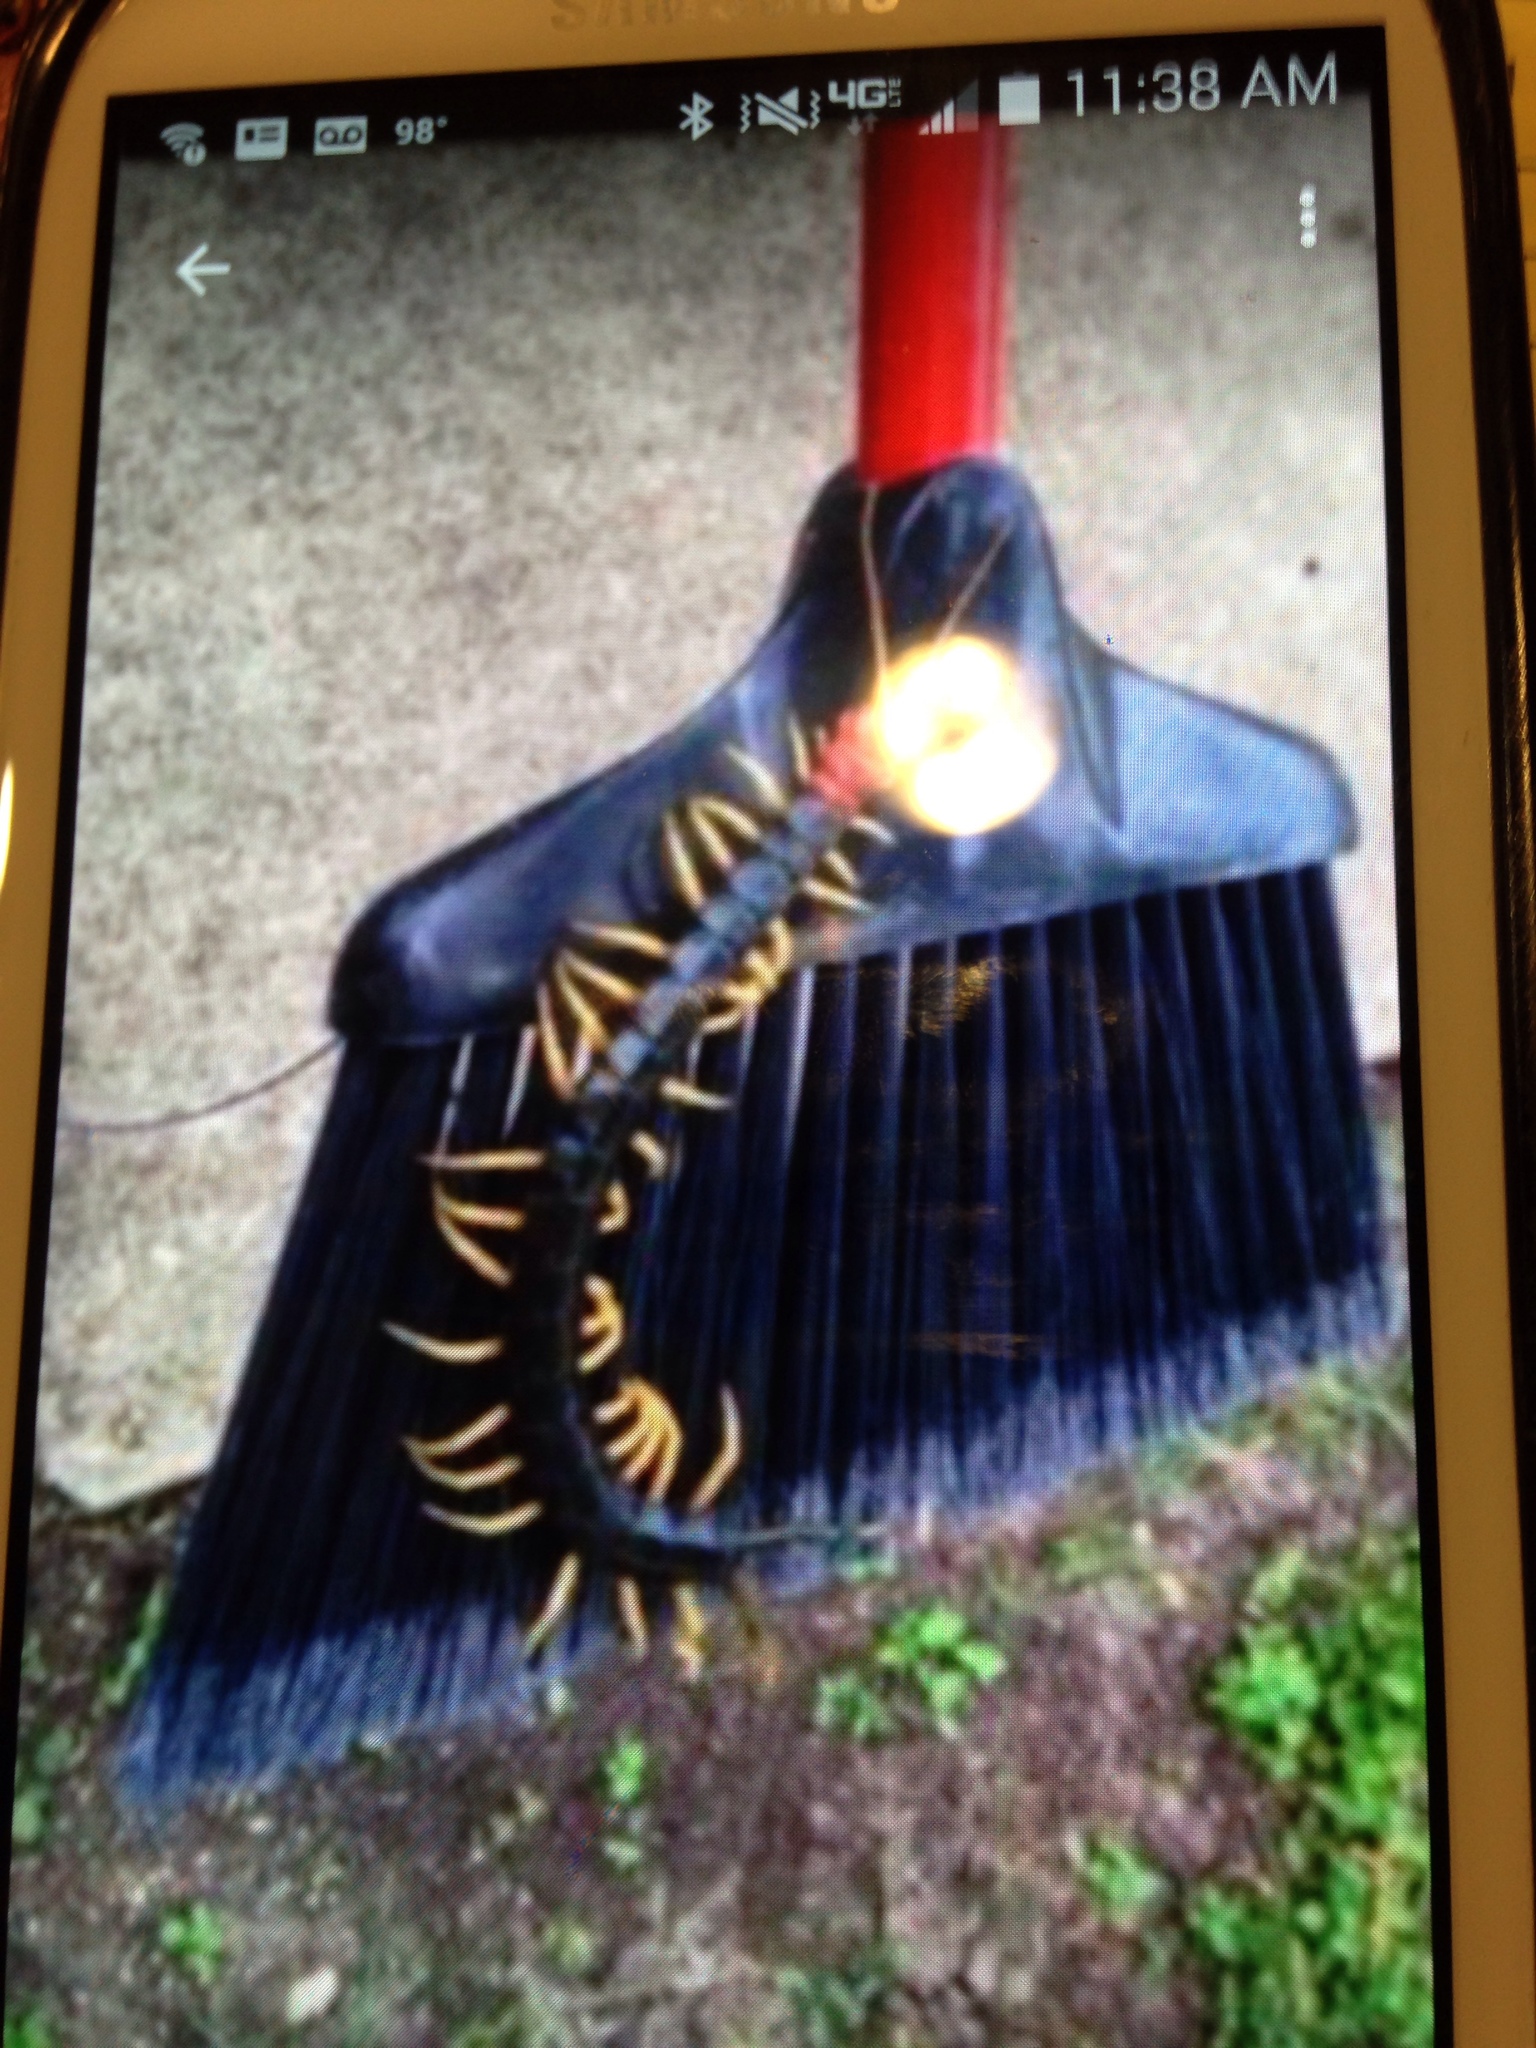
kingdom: Animalia
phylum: Arthropoda
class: Chilopoda
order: Scolopendromorpha
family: Scolopendridae
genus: Scolopendra
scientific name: Scolopendra heros
